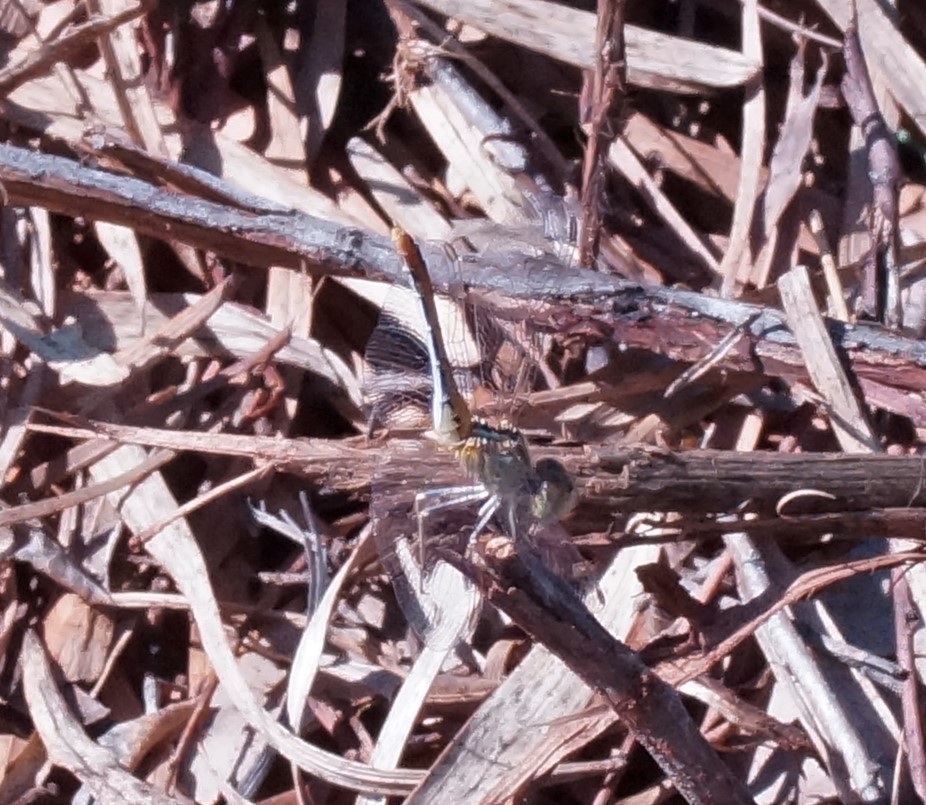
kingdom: Animalia
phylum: Arthropoda
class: Insecta
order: Odonata
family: Libellulidae
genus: Diplacodes
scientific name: Diplacodes bipunctata
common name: Red percher dragonfly
